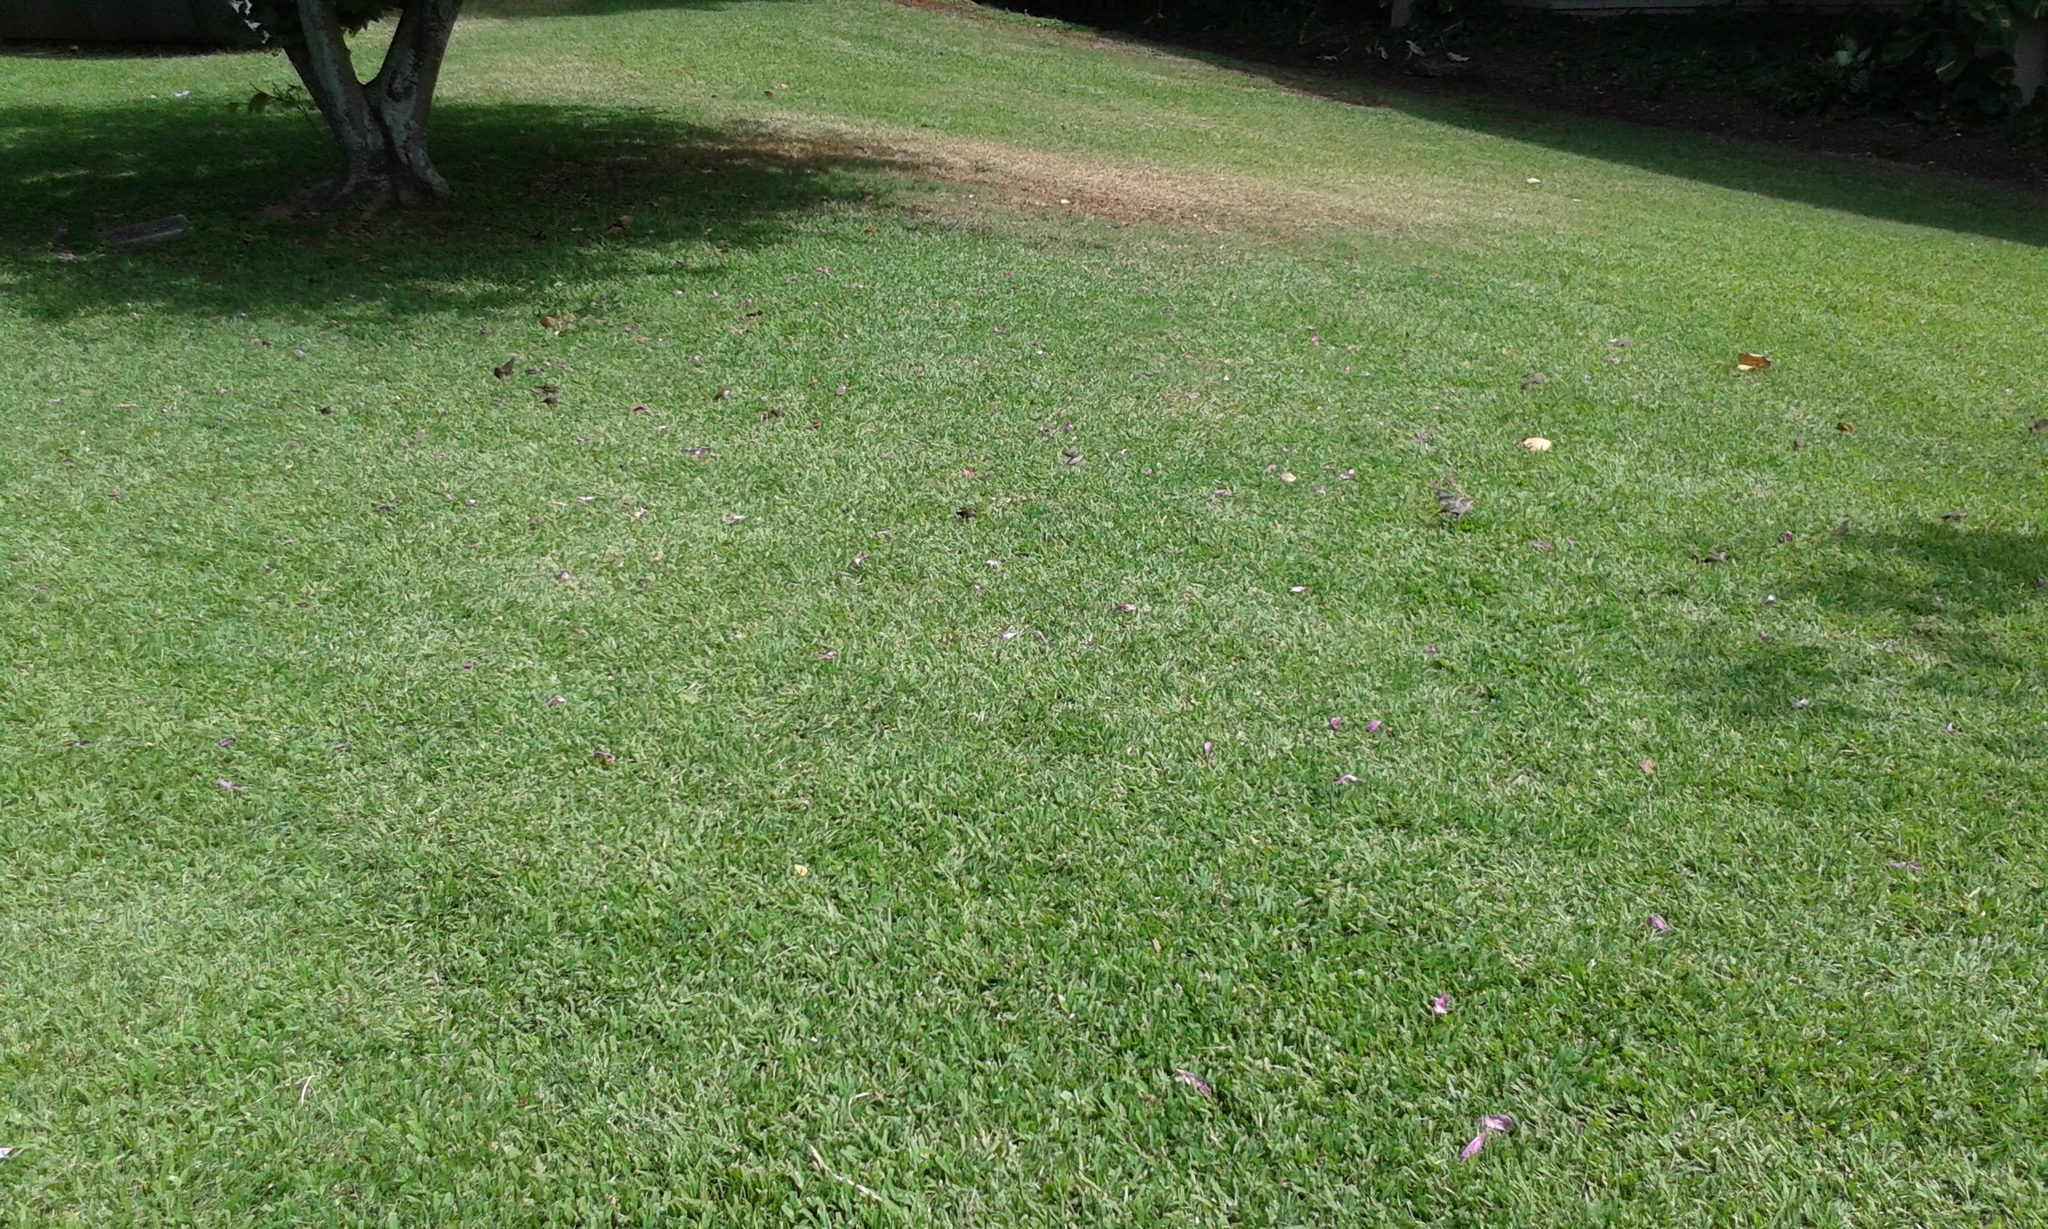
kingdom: Animalia
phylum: Chordata
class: Aves
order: Passeriformes
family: Estrildidae
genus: Estrilda
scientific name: Estrilda astrild
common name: Common waxbill
